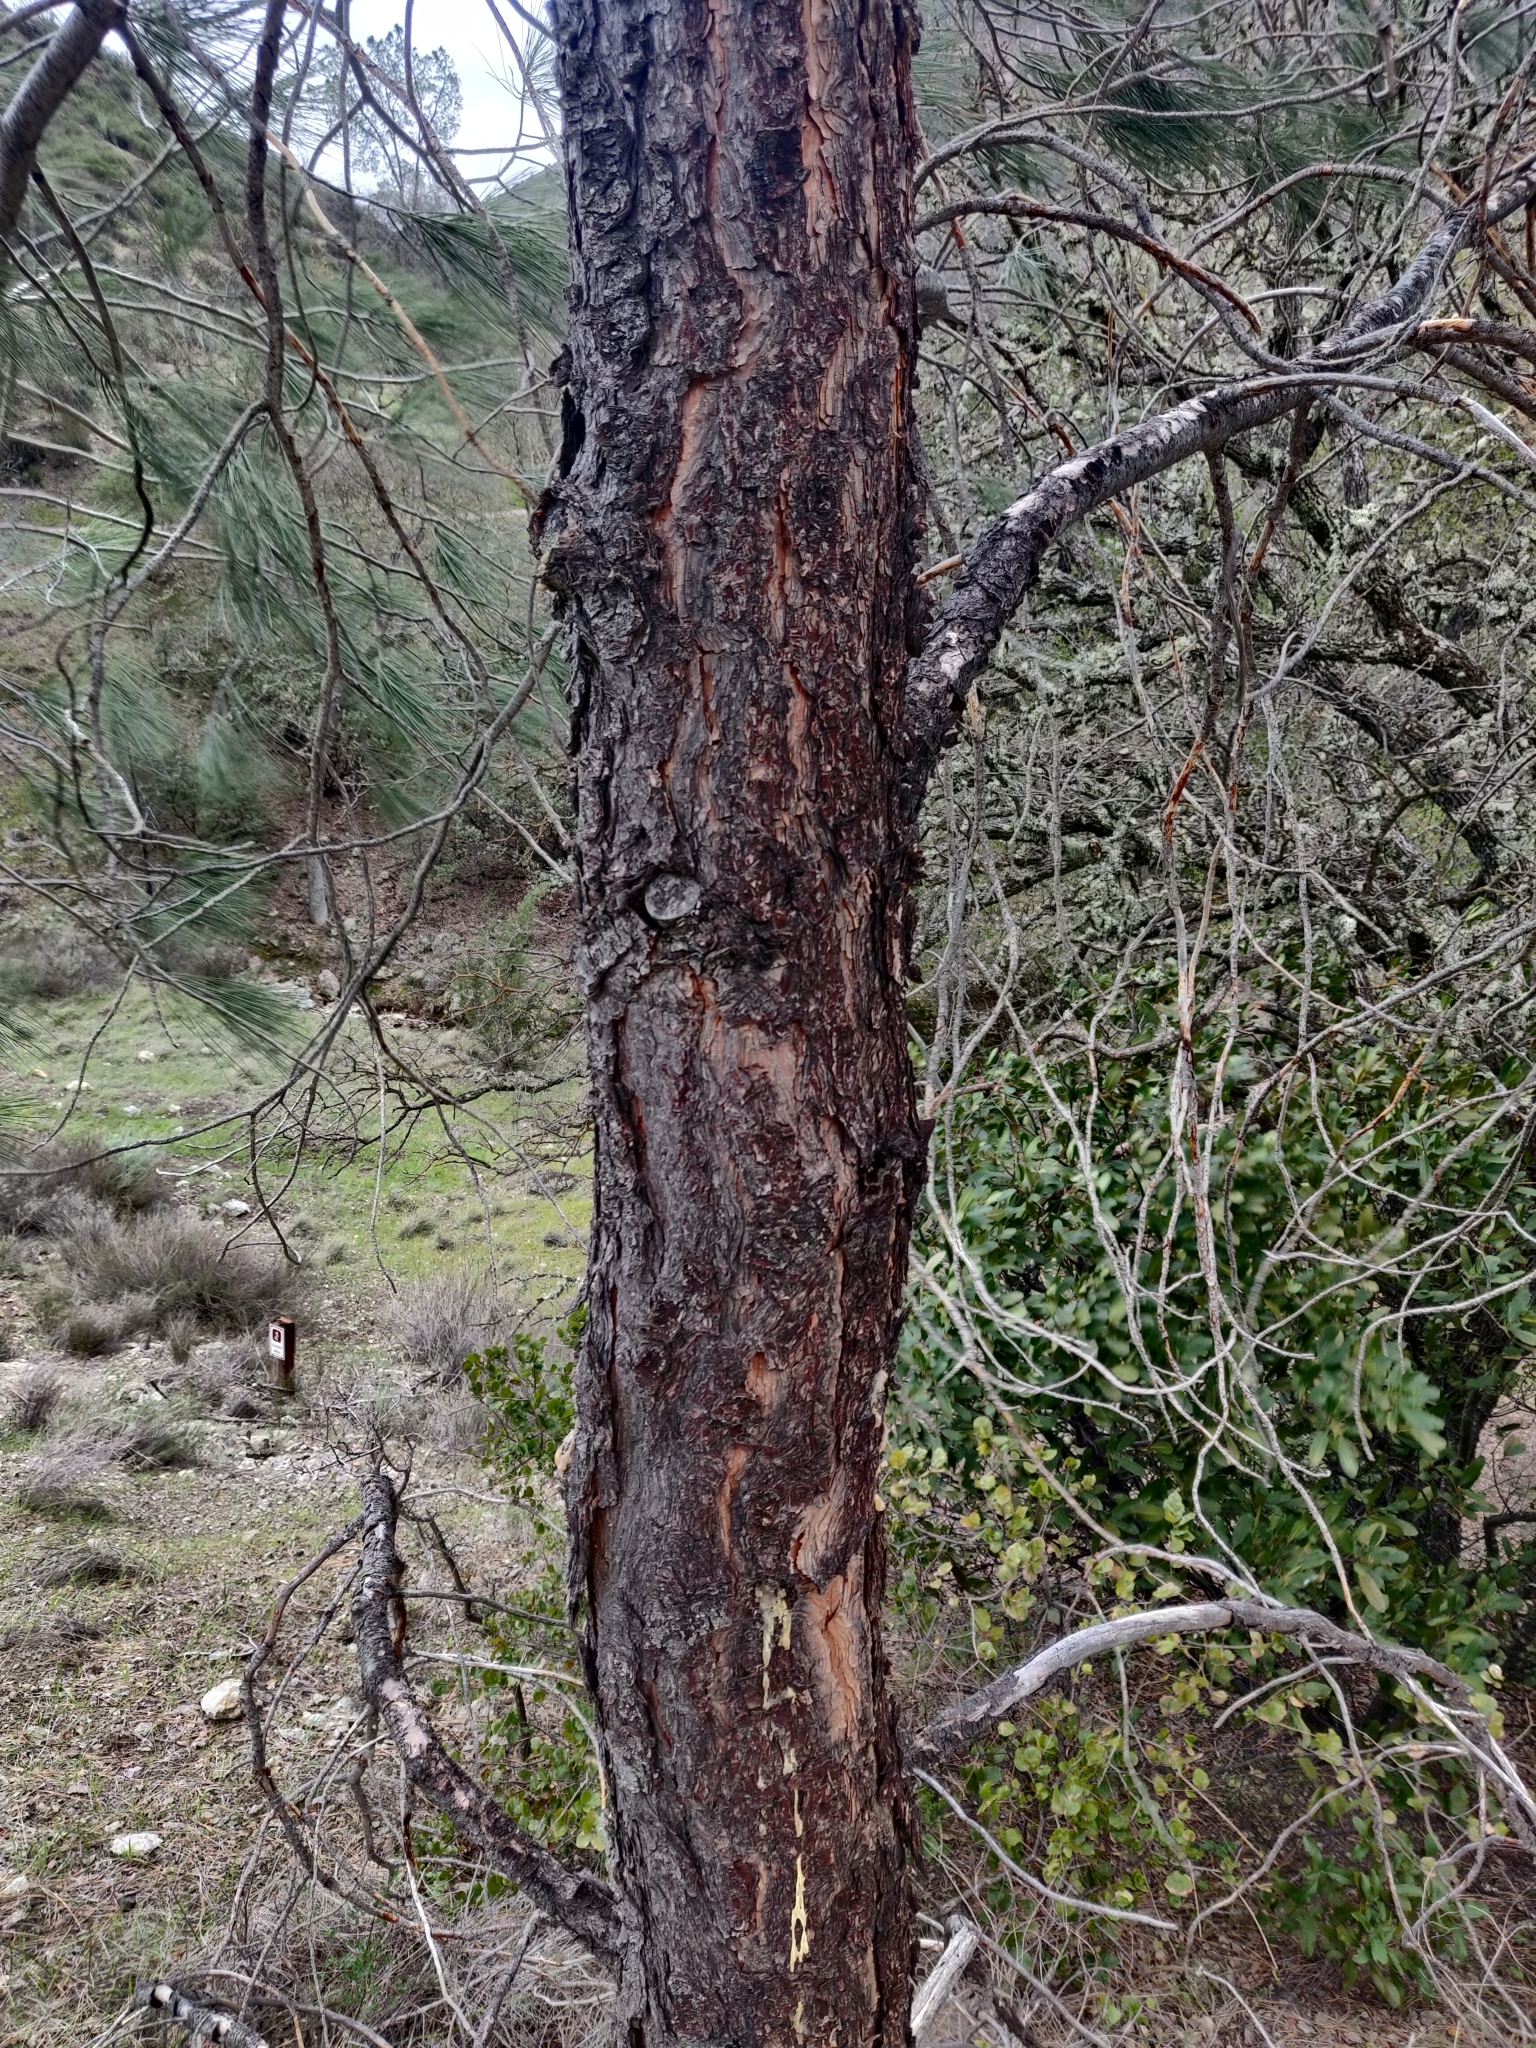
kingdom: Plantae
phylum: Tracheophyta
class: Pinopsida
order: Pinales
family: Pinaceae
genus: Pinus
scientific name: Pinus sabiniana
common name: Bull pine
